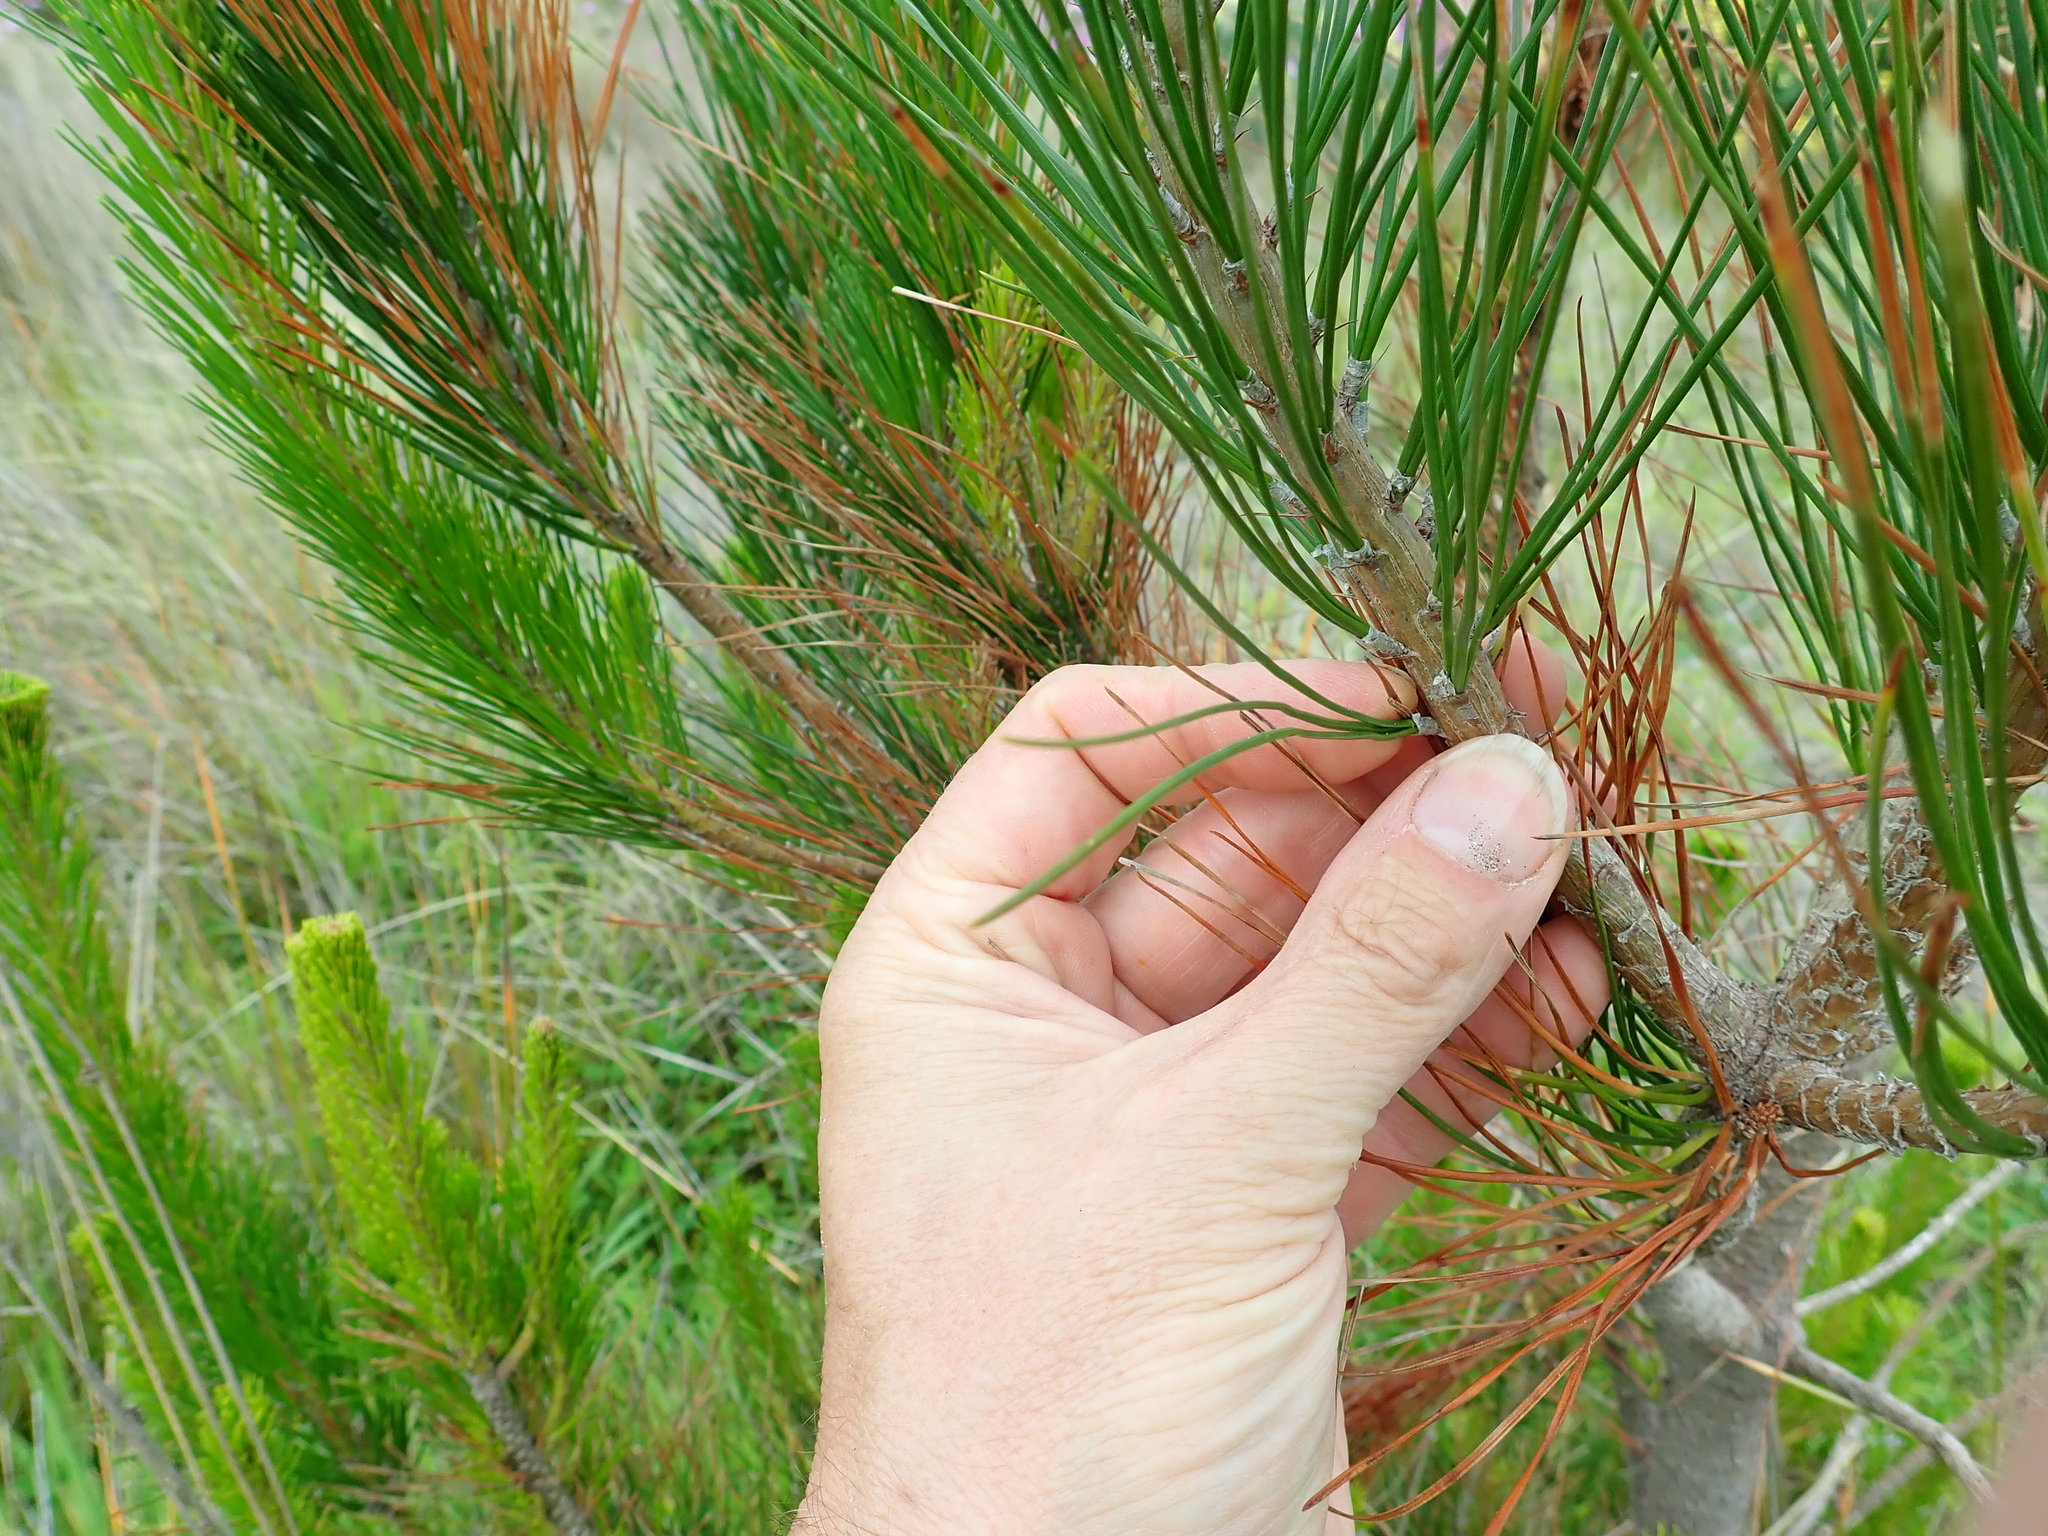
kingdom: Plantae
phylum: Tracheophyta
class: Pinopsida
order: Pinales
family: Pinaceae
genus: Pinus
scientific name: Pinus radiata
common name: Monterey pine
